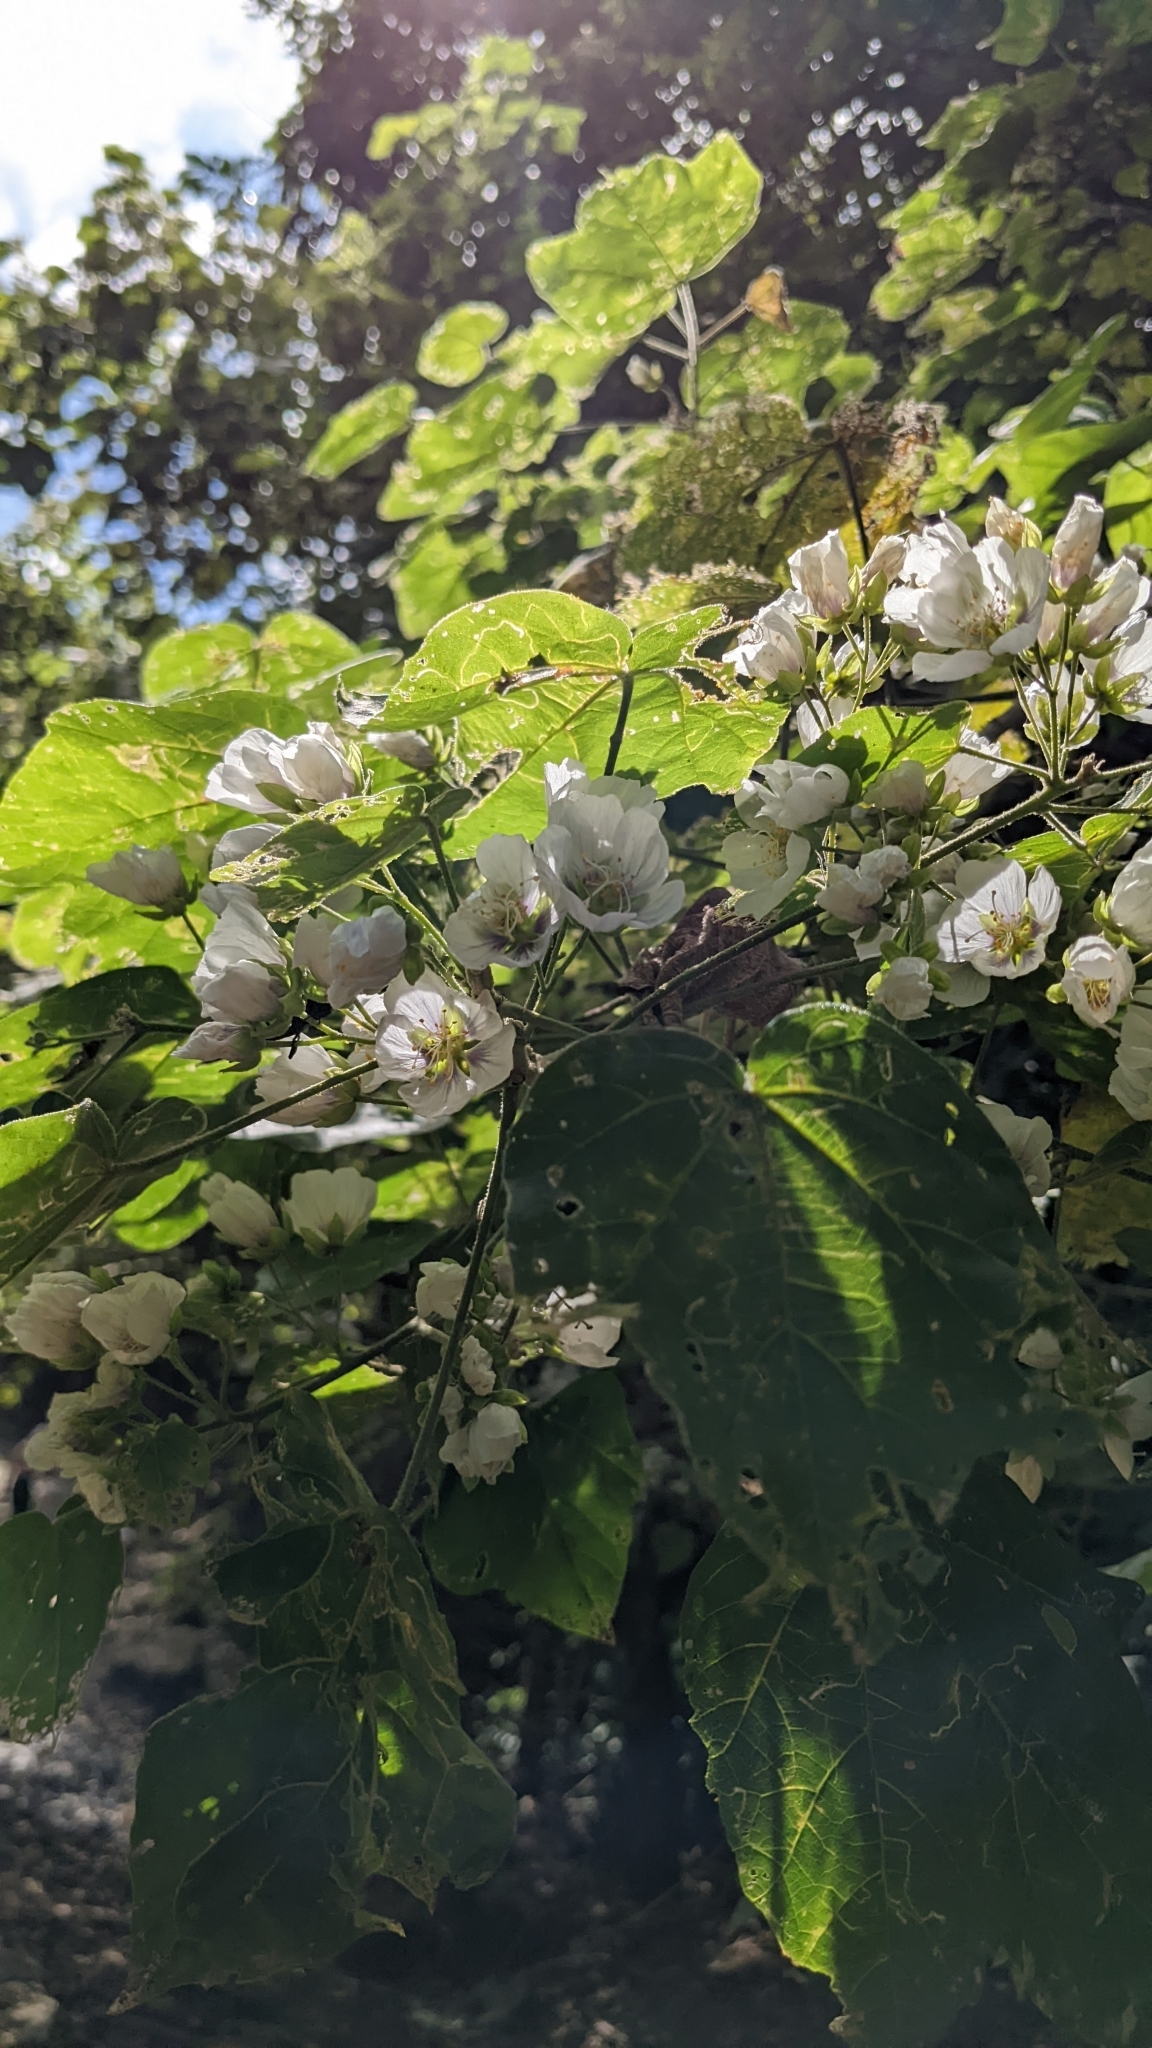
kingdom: Plantae
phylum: Tracheophyta
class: Magnoliopsida
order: Malvales
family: Malvaceae
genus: Robinsonella
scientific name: Robinsonella lindeniana
